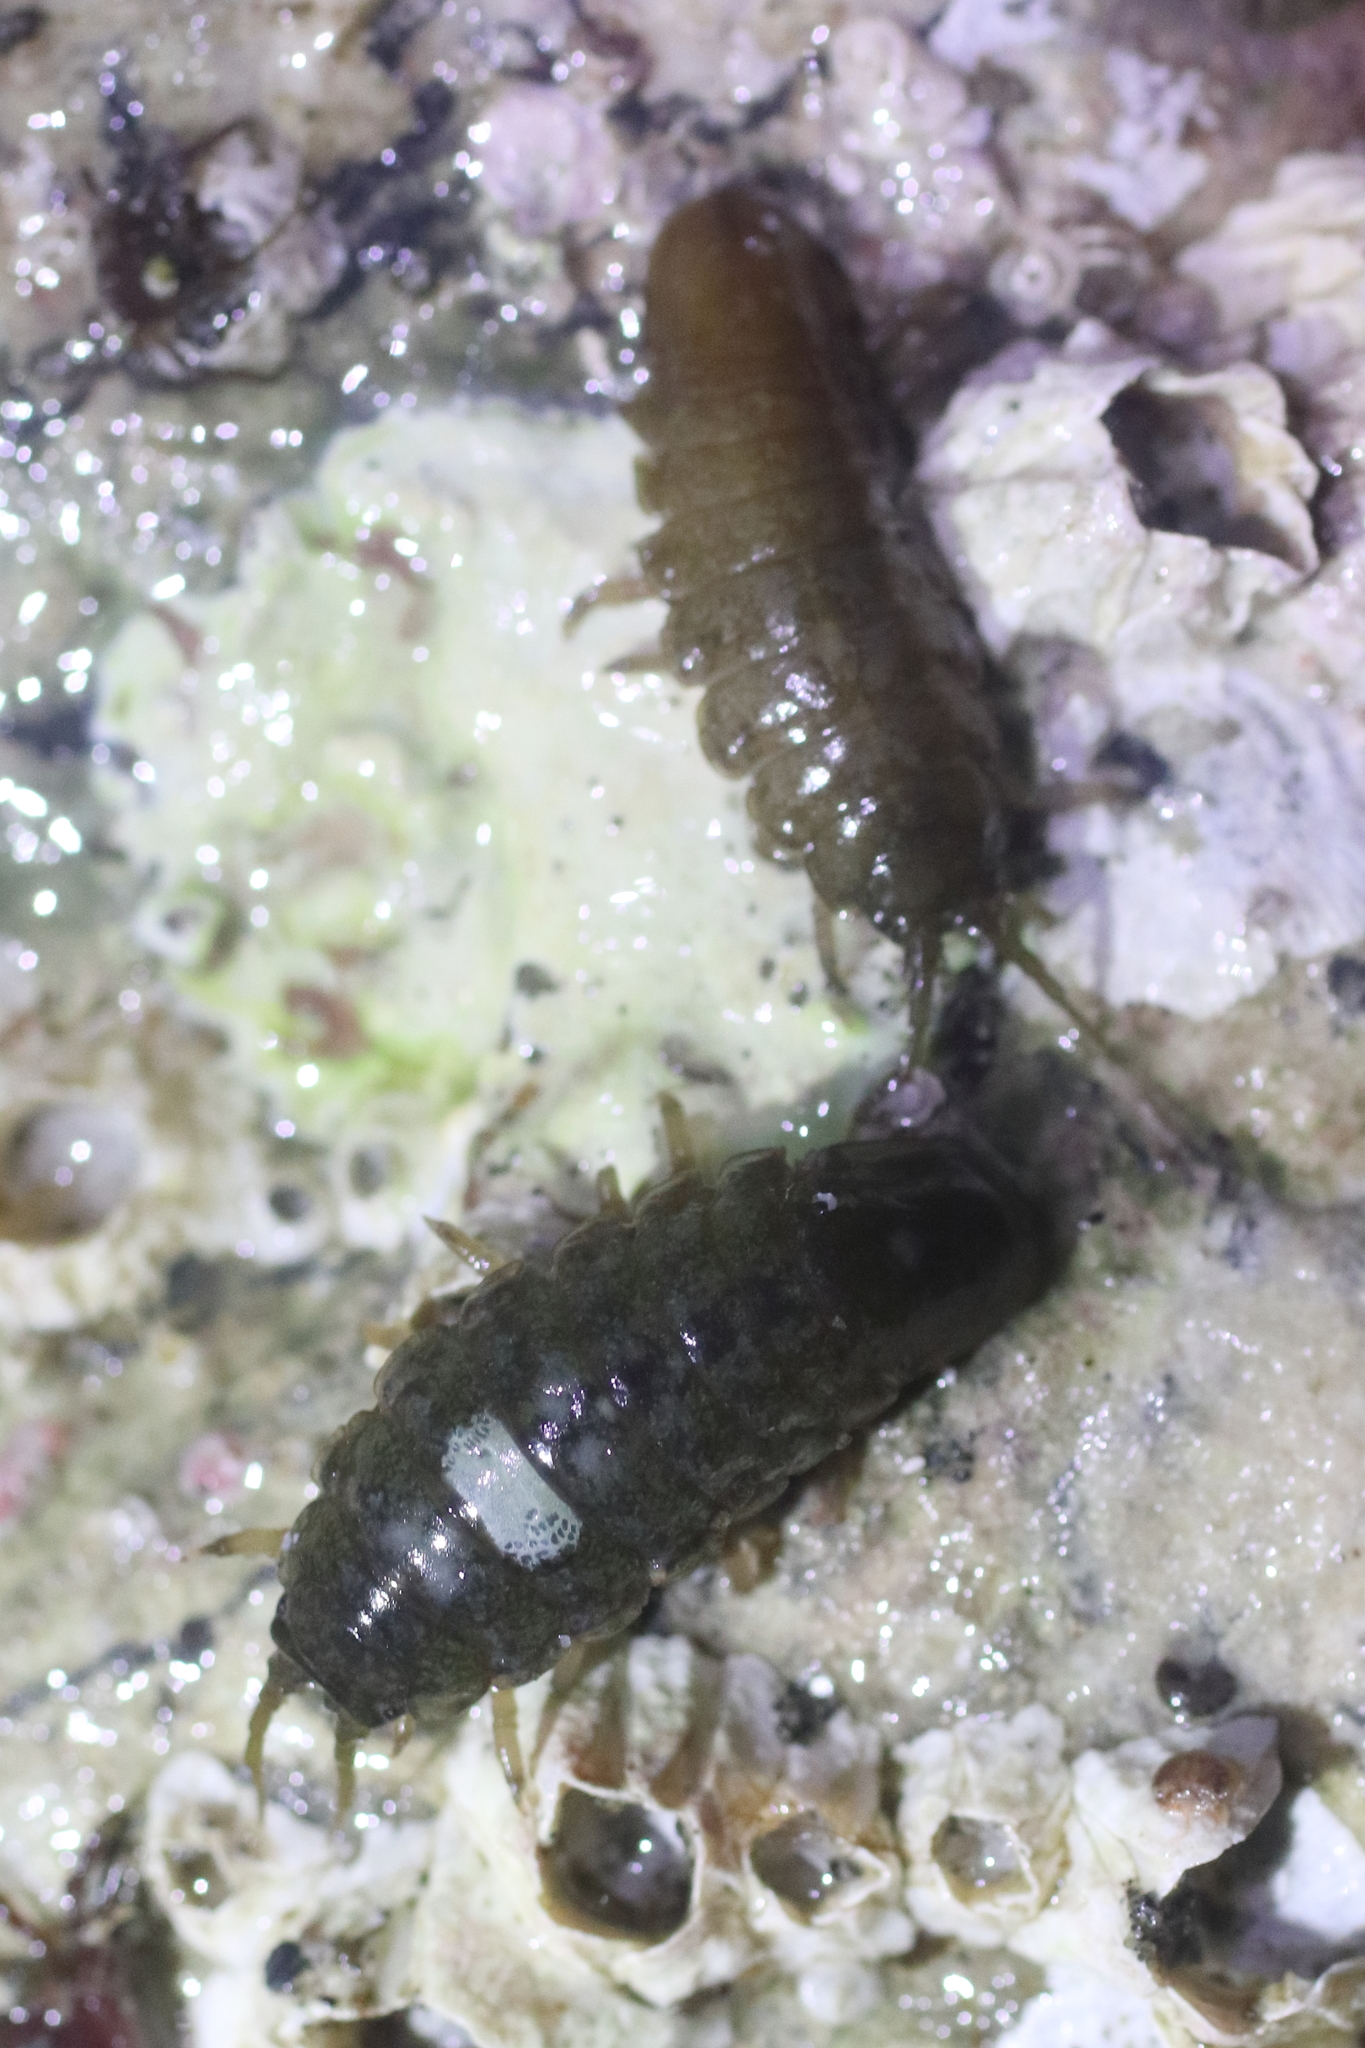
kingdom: Animalia
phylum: Arthropoda
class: Malacostraca
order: Isopoda
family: Idoteidae
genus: Pentidotea
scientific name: Pentidotea wosnesenskii
